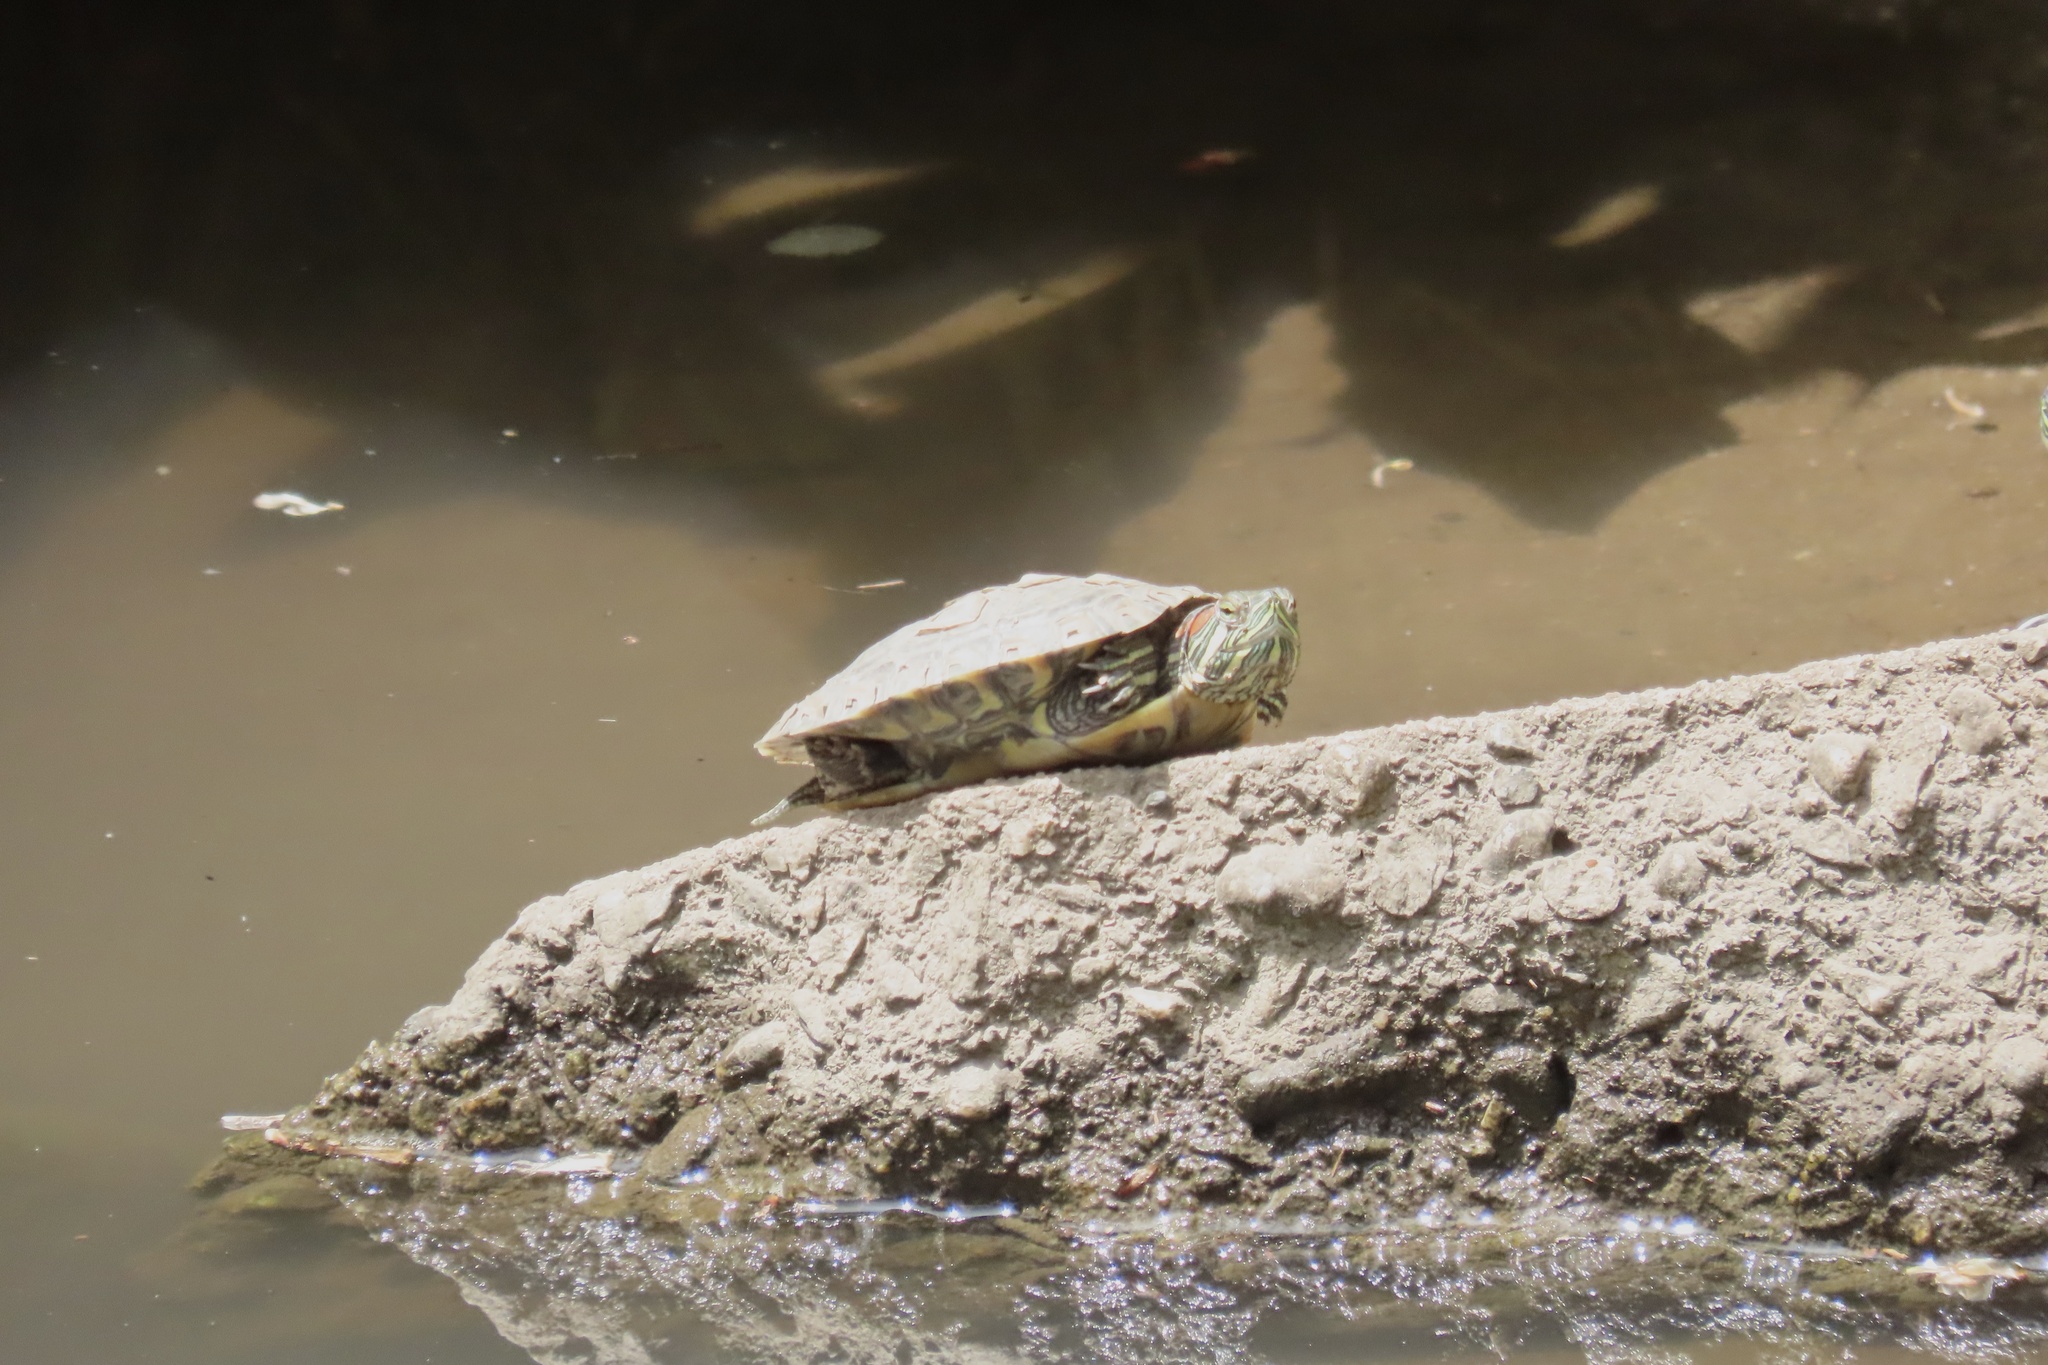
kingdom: Animalia
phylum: Chordata
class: Testudines
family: Emydidae
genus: Trachemys
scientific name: Trachemys scripta
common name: Slider
